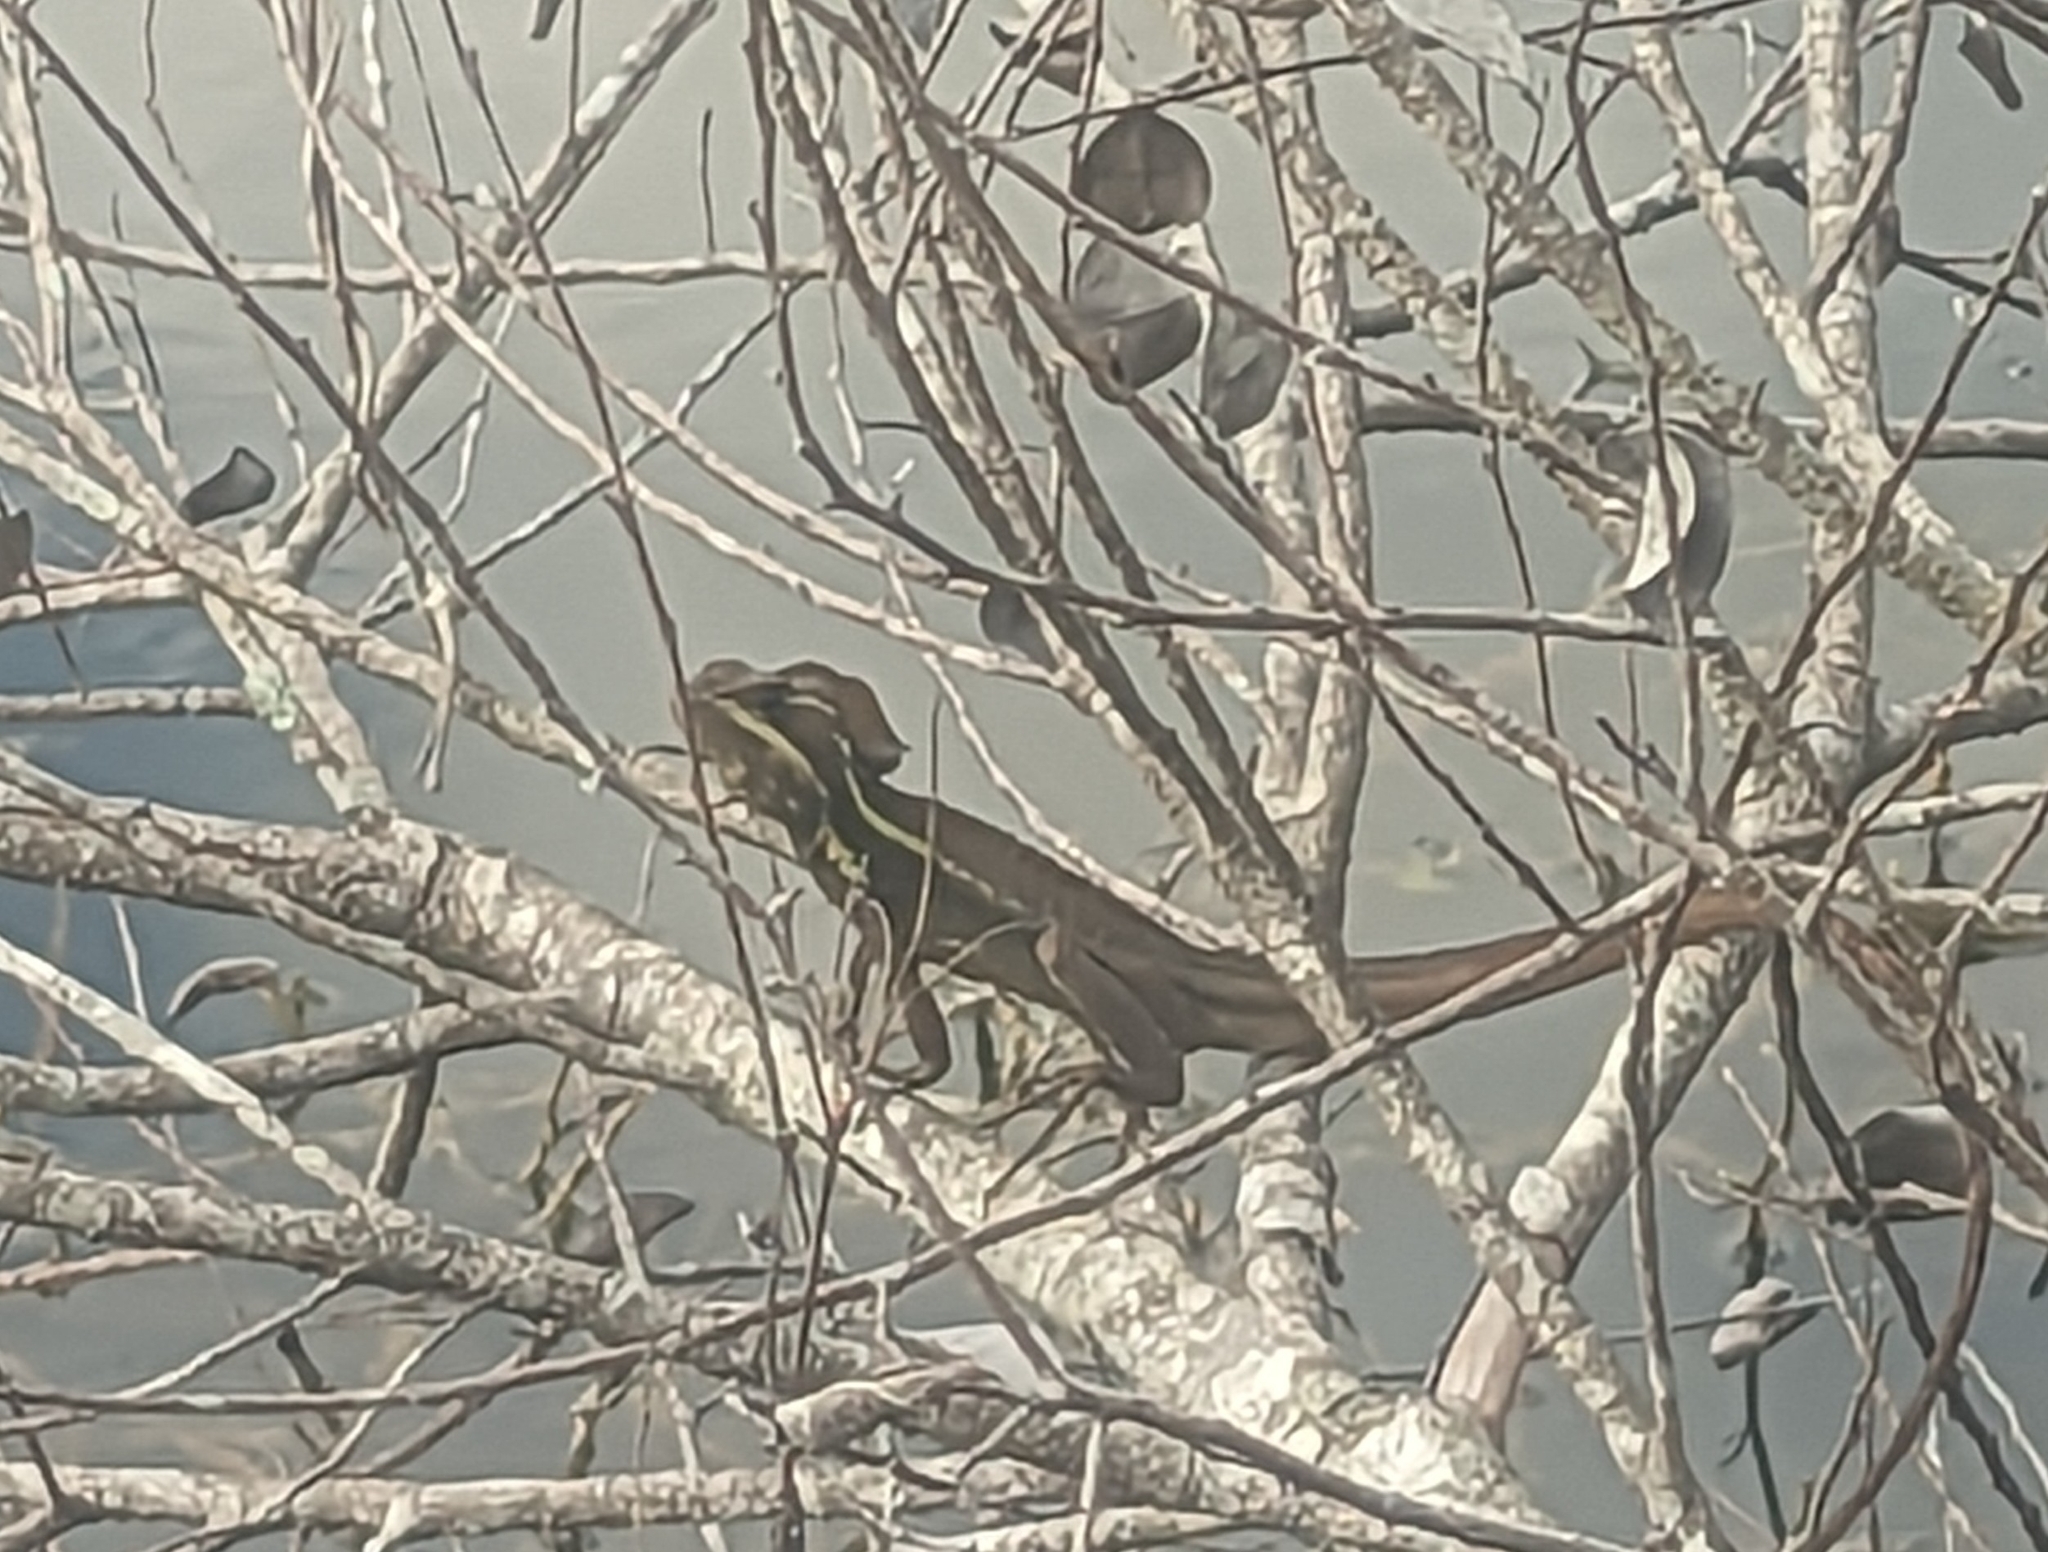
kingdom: Animalia
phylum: Chordata
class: Squamata
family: Corytophanidae
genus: Basiliscus
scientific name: Basiliscus vittatus
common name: Brown basilisk
